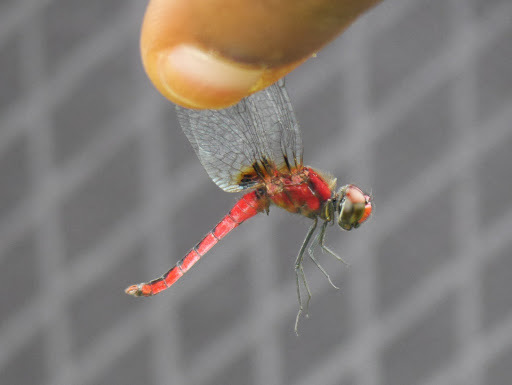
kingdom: Animalia
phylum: Arthropoda
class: Insecta
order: Odonata
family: Libellulidae
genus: Aethriamanta
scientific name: Aethriamanta rezia
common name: Pygmy basker
